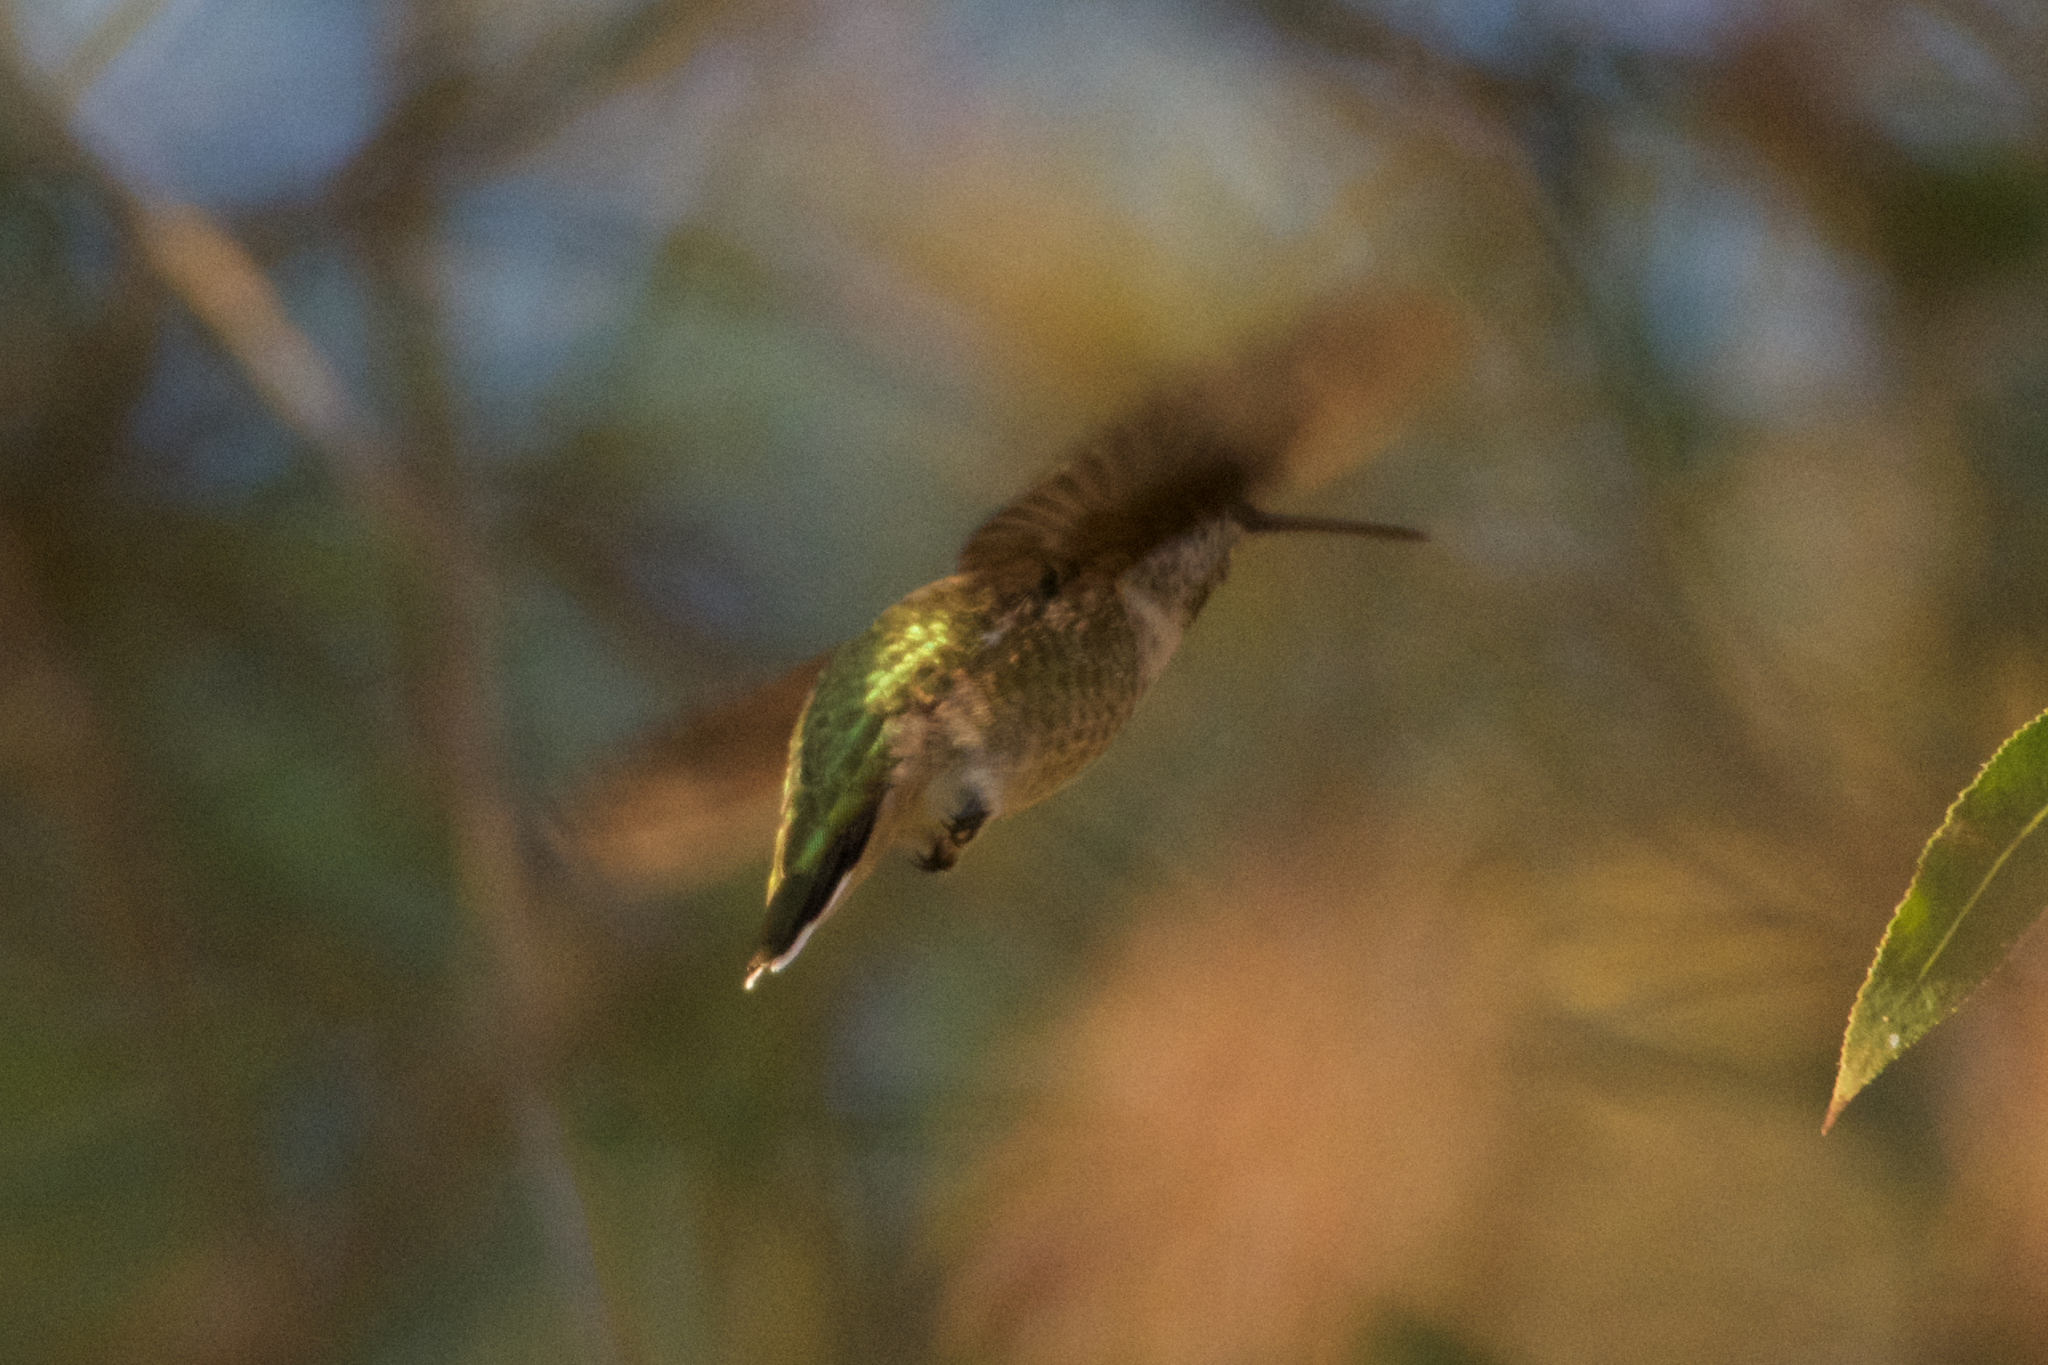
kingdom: Animalia
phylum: Chordata
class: Aves
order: Apodiformes
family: Trochilidae
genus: Calypte
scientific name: Calypte anna
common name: Anna's hummingbird
